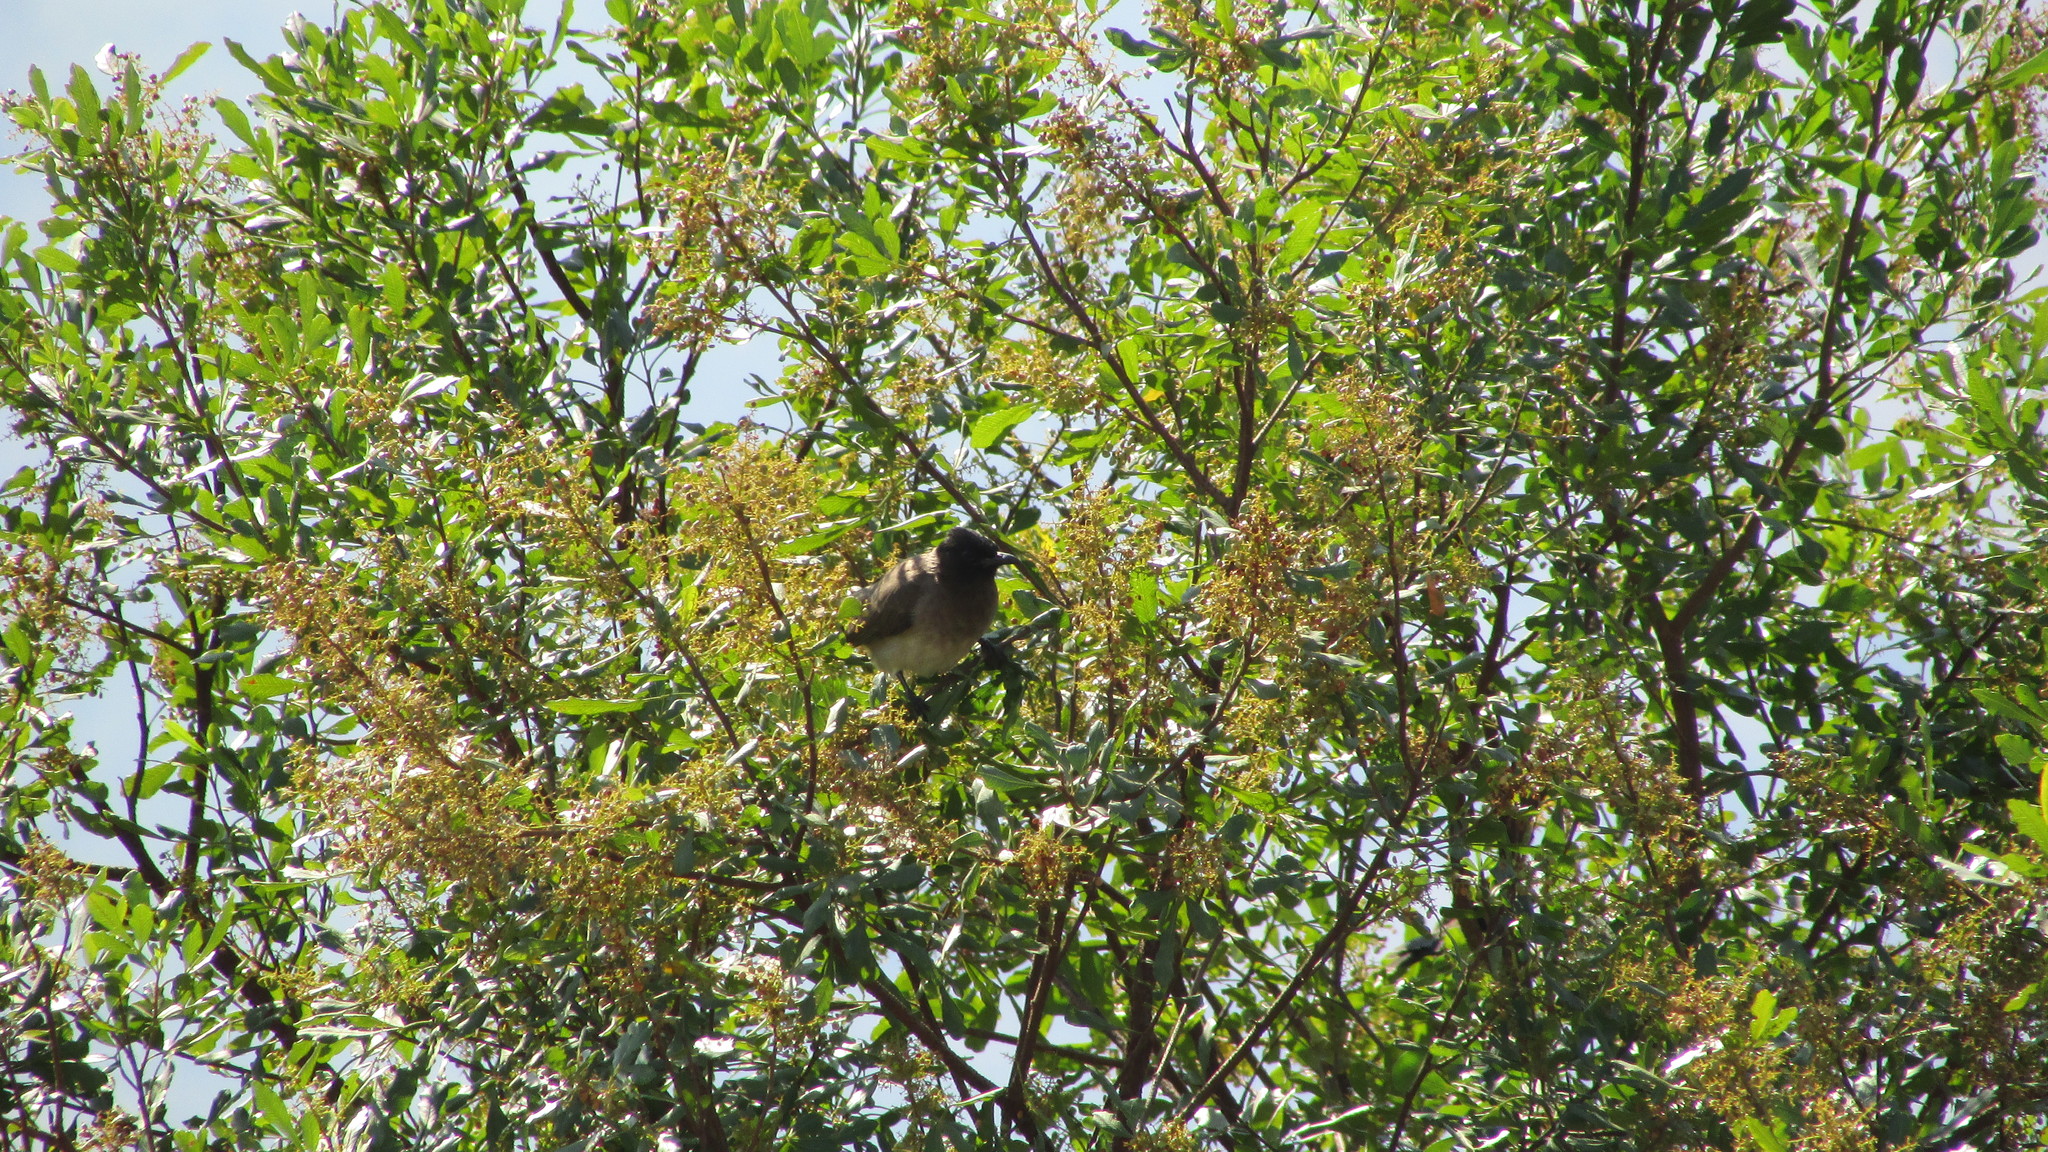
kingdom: Animalia
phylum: Chordata
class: Aves
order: Passeriformes
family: Pycnonotidae
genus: Pycnonotus
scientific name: Pycnonotus barbatus
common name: Common bulbul
